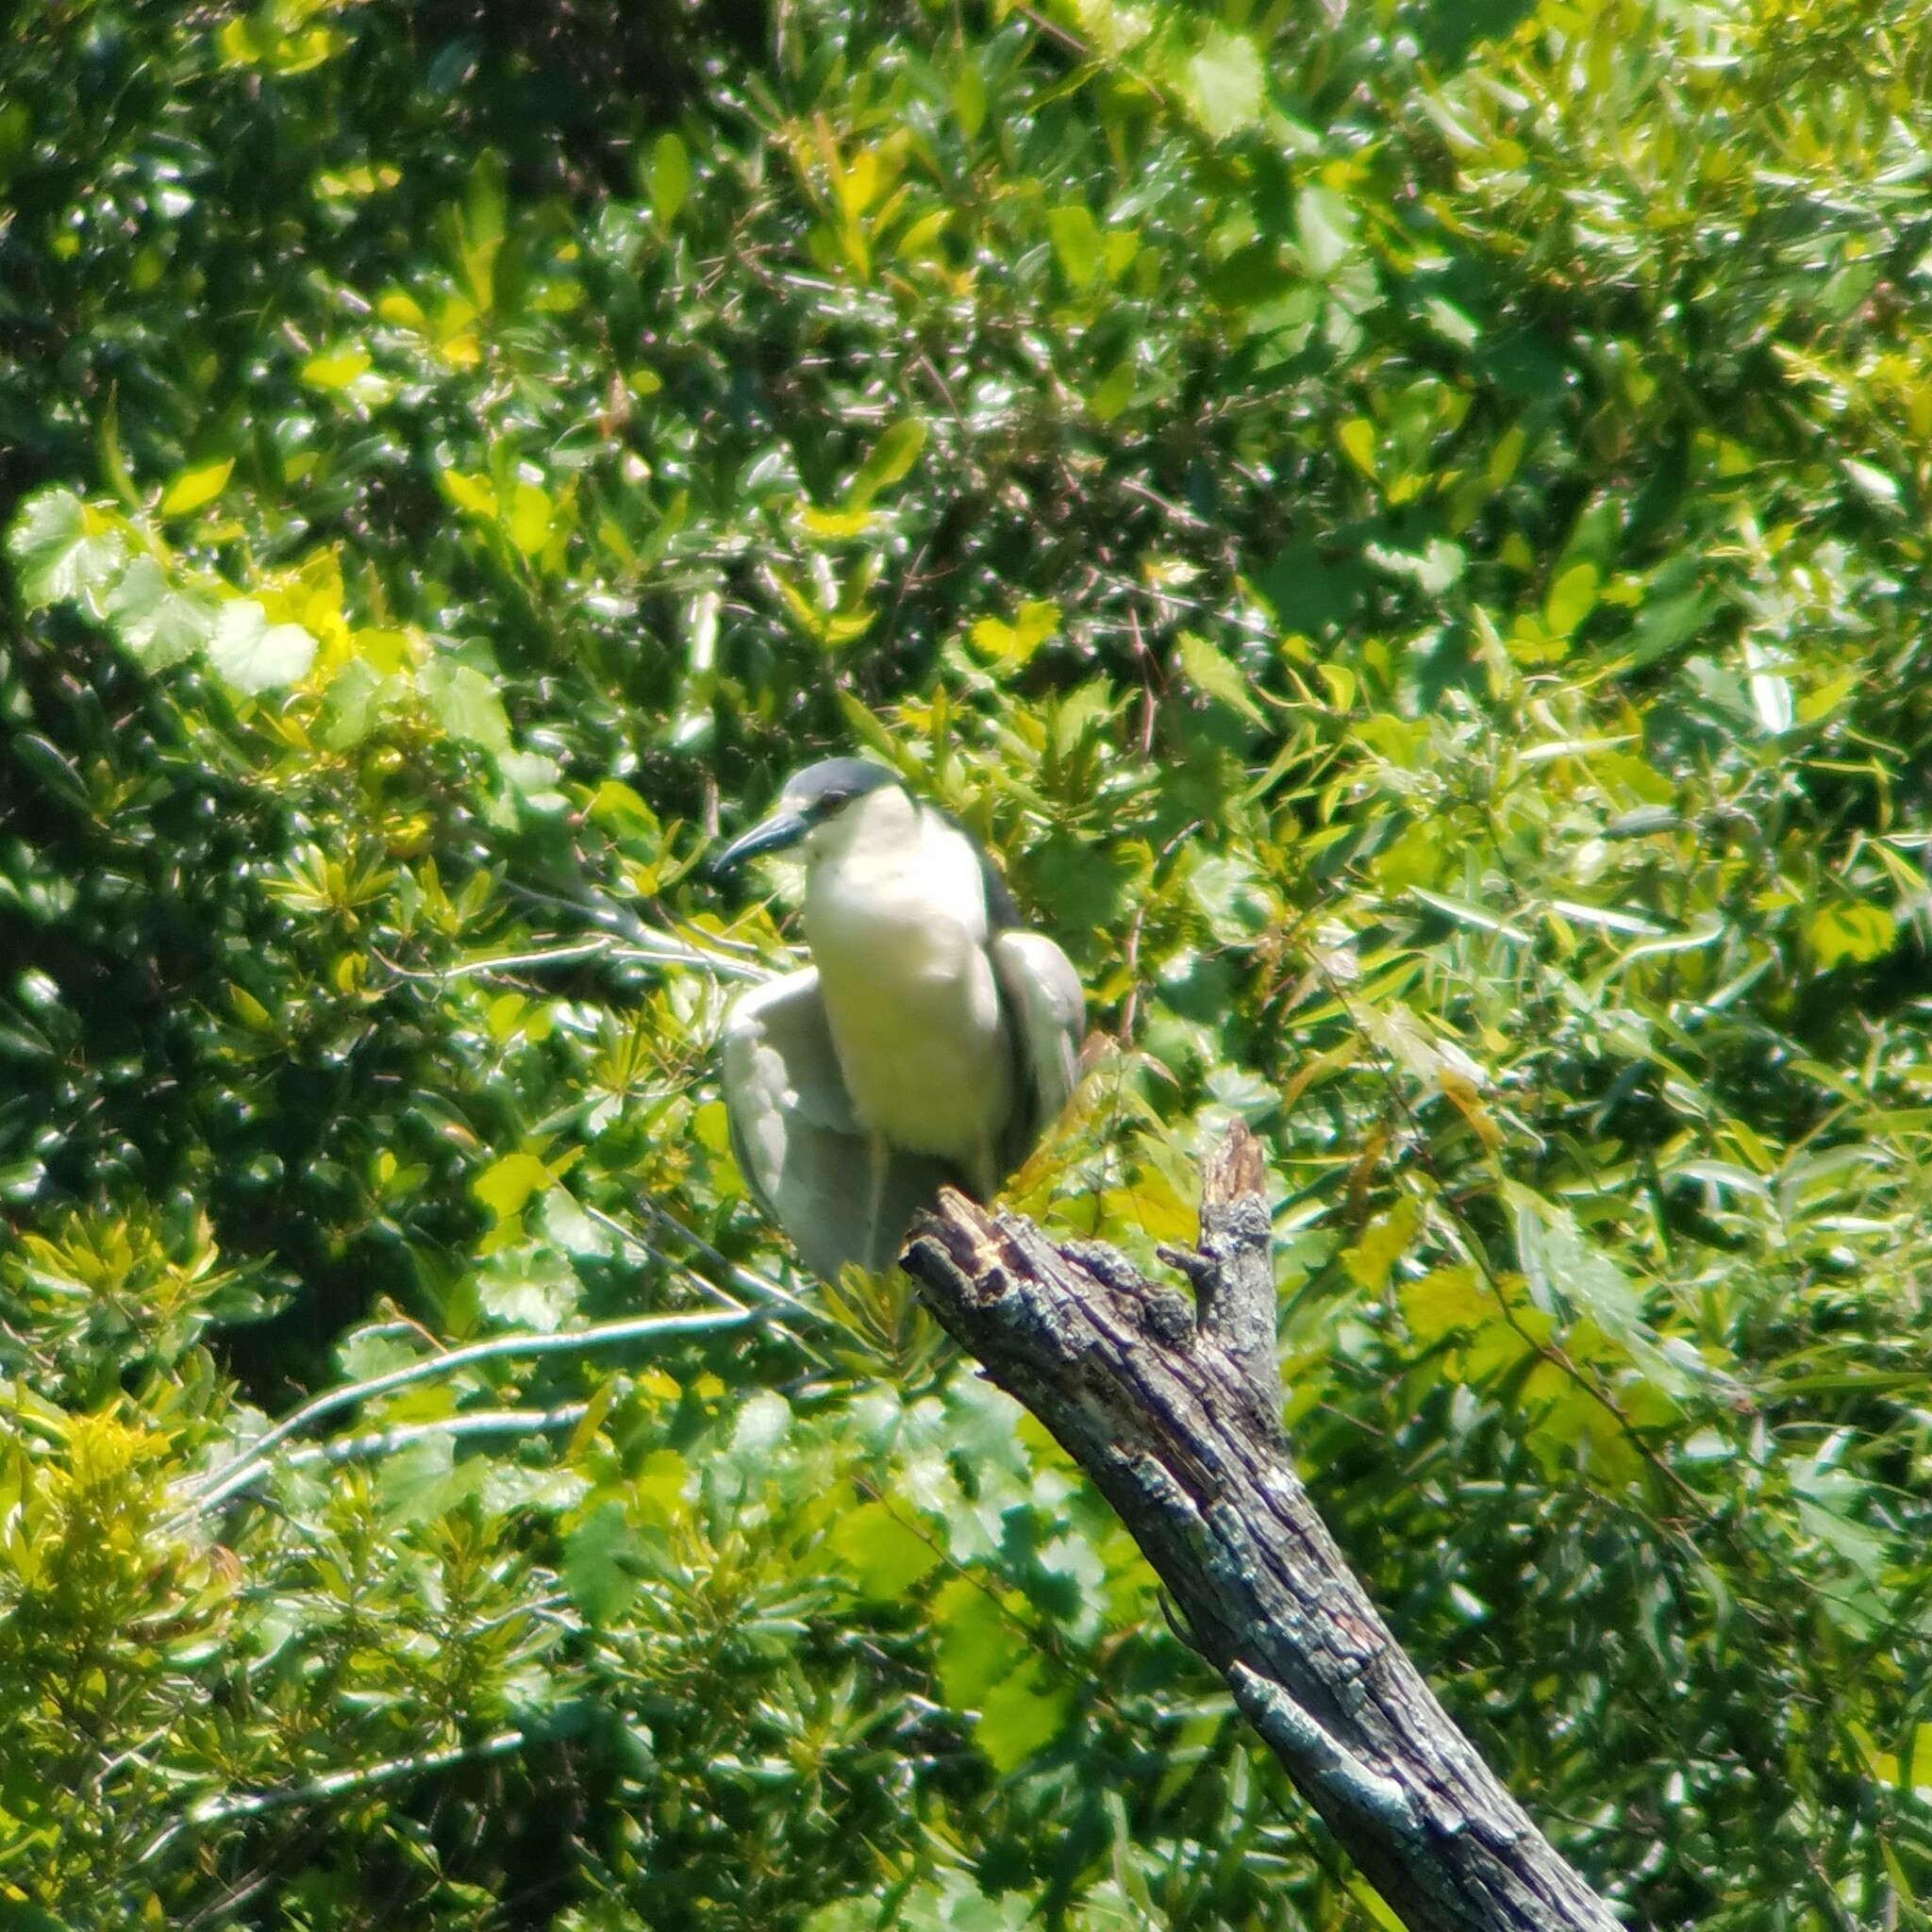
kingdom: Animalia
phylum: Chordata
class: Aves
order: Pelecaniformes
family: Ardeidae
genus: Nycticorax
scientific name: Nycticorax nycticorax
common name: Black-crowned night heron
